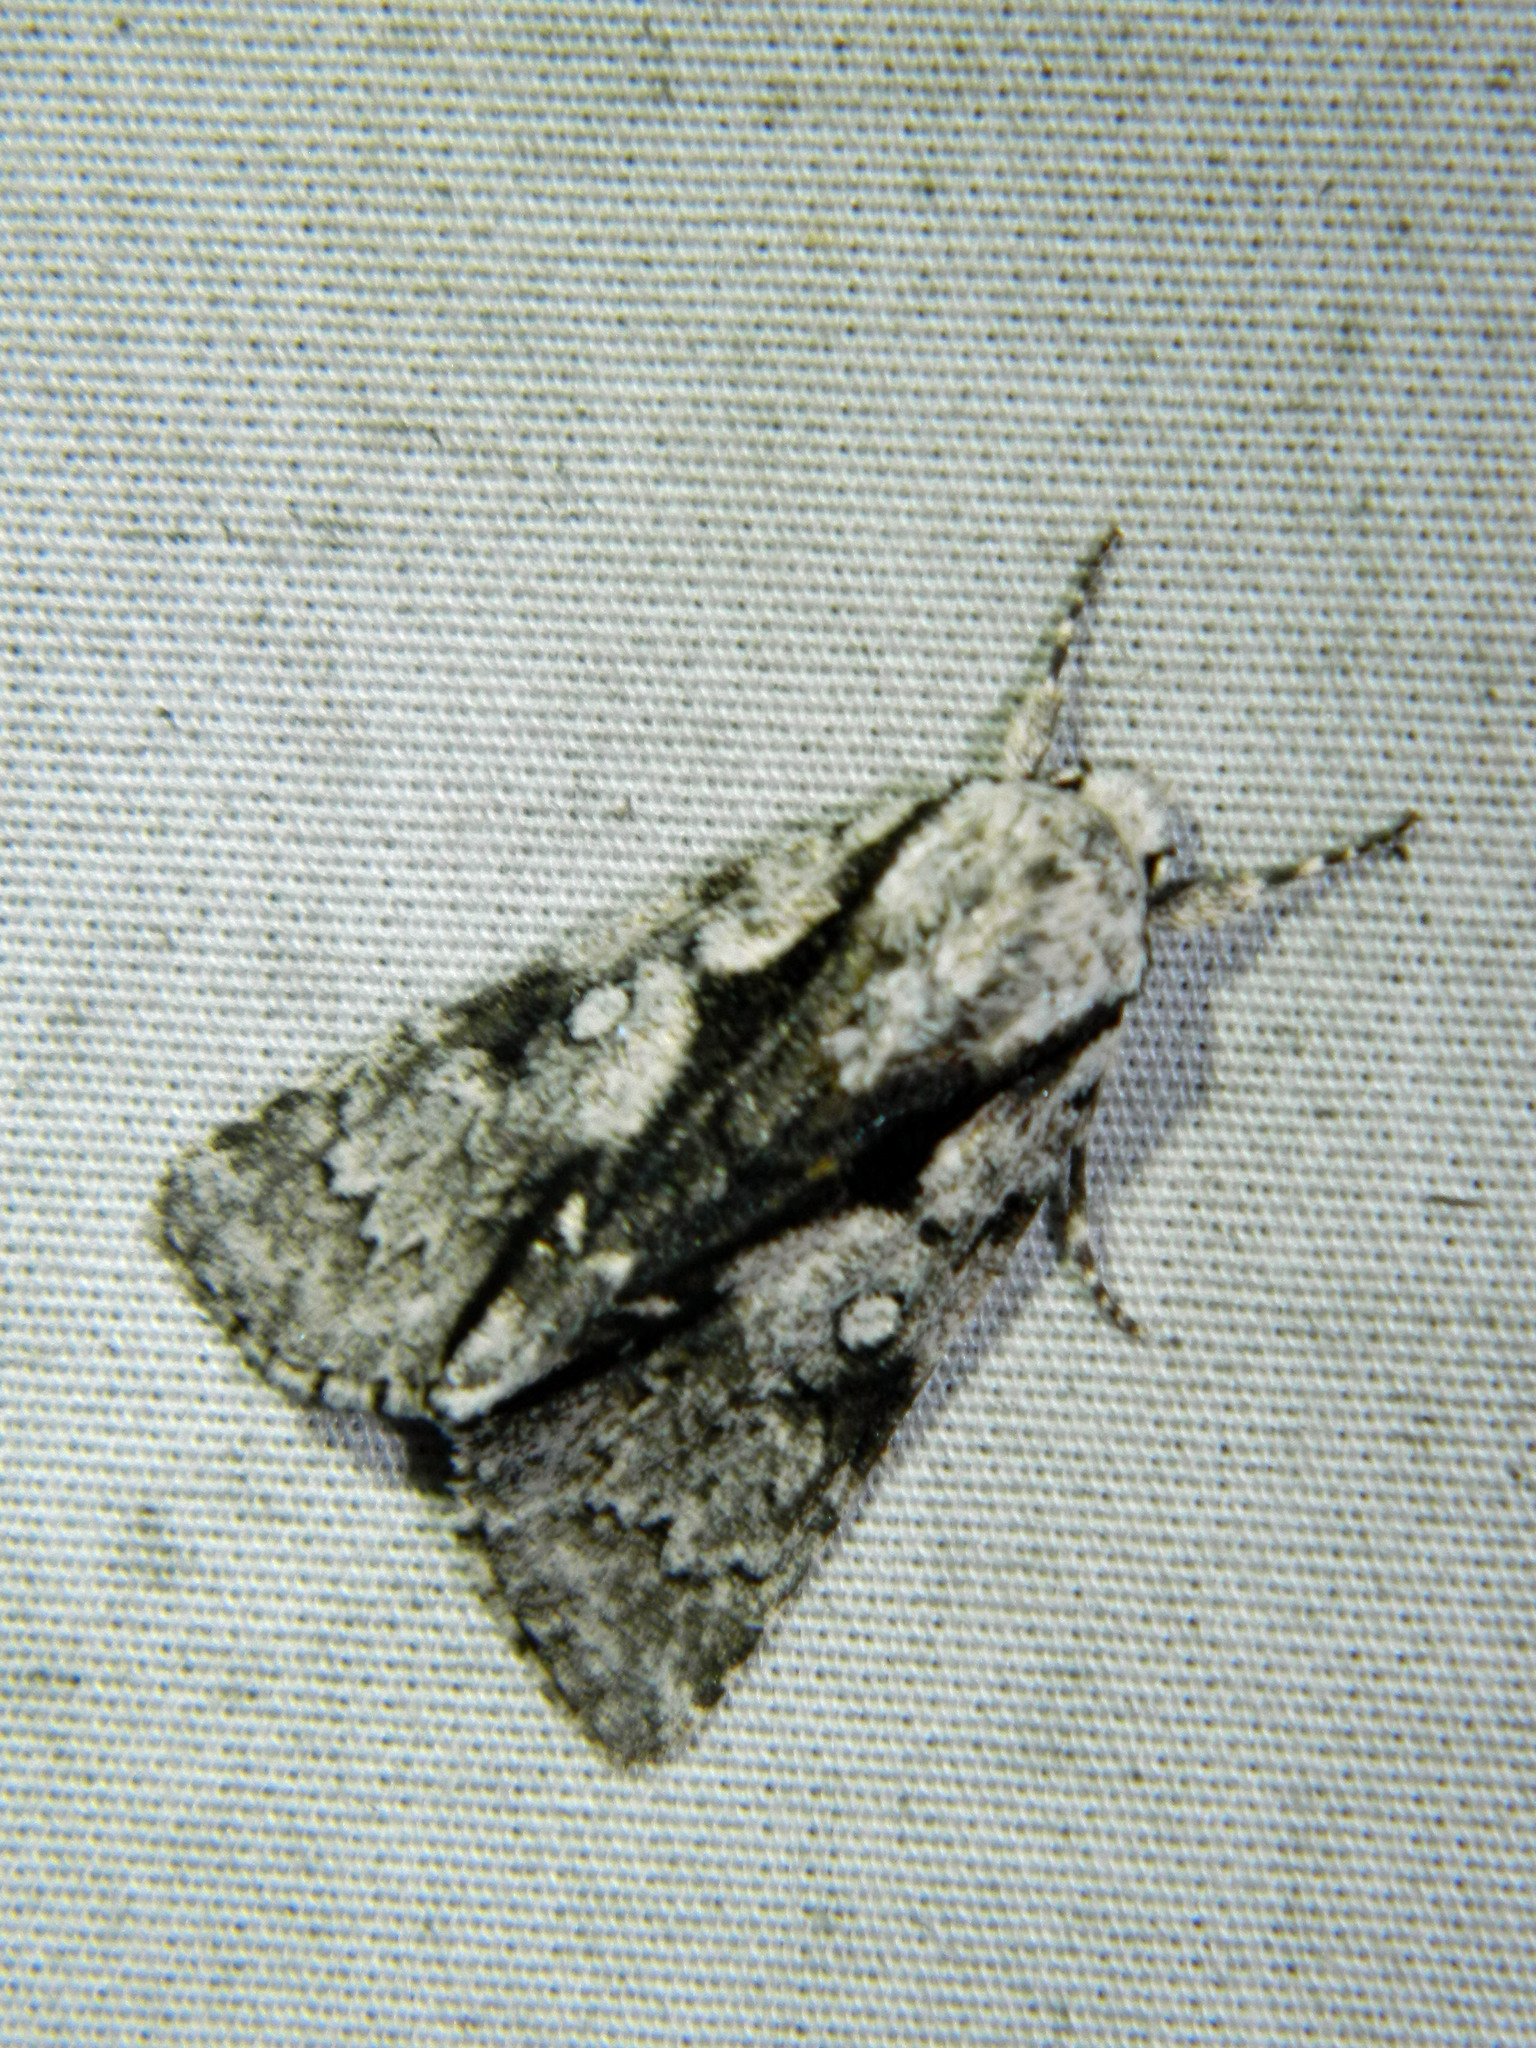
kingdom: Animalia
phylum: Arthropoda
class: Insecta
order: Lepidoptera
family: Noctuidae
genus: Acronicta
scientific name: Acronicta funeralis
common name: Funerary dagger
